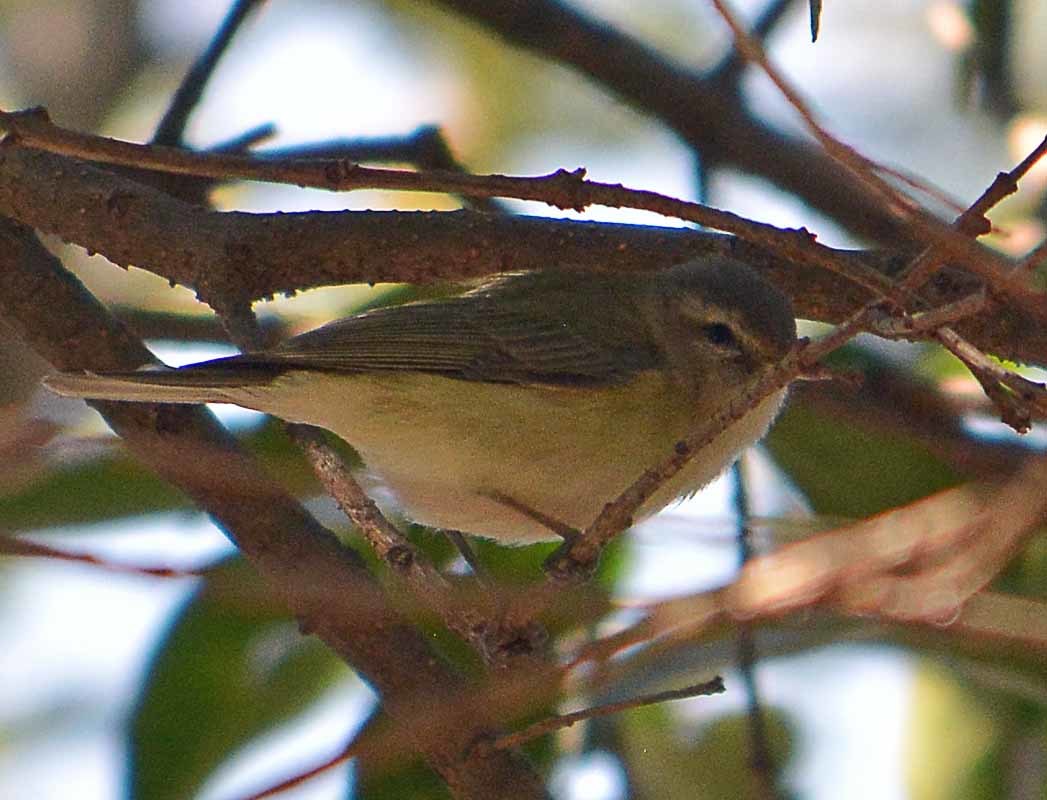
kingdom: Animalia
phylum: Chordata
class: Aves
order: Passeriformes
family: Vireonidae
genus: Vireo
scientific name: Vireo gilvus
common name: Warbling vireo
